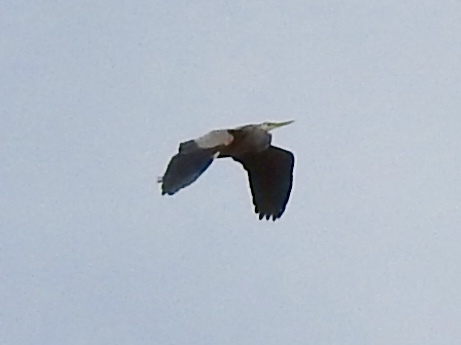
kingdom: Animalia
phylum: Chordata
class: Aves
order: Pelecaniformes
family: Ardeidae
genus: Ardea
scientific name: Ardea herodias
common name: Great blue heron
